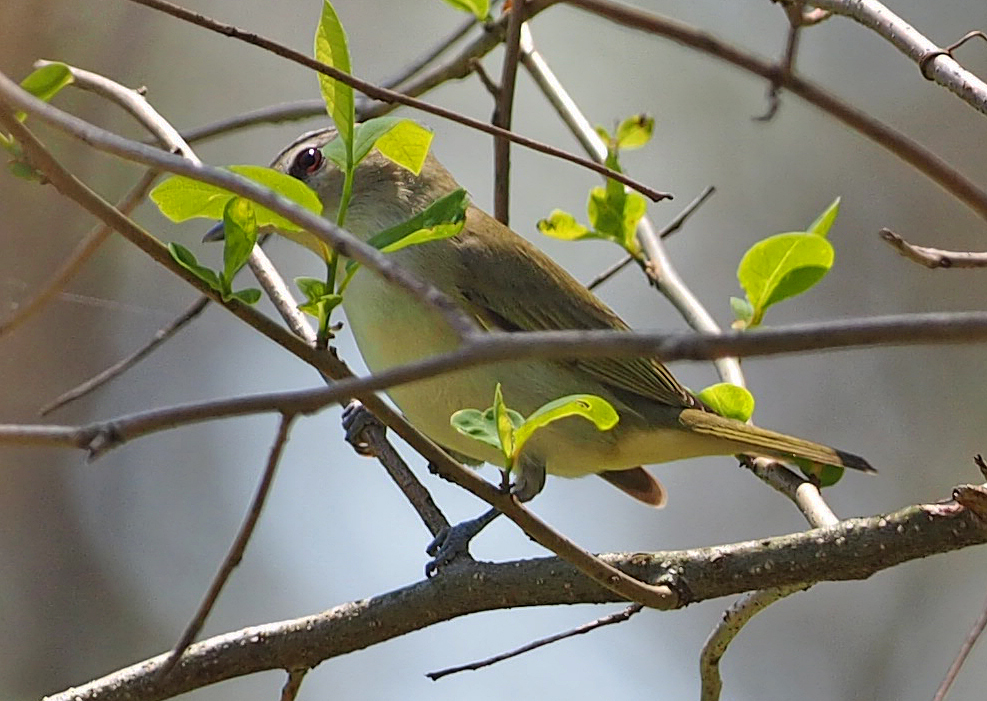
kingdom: Animalia
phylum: Chordata
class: Aves
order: Passeriformes
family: Vireonidae
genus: Vireo
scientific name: Vireo olivaceus
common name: Red-eyed vireo
